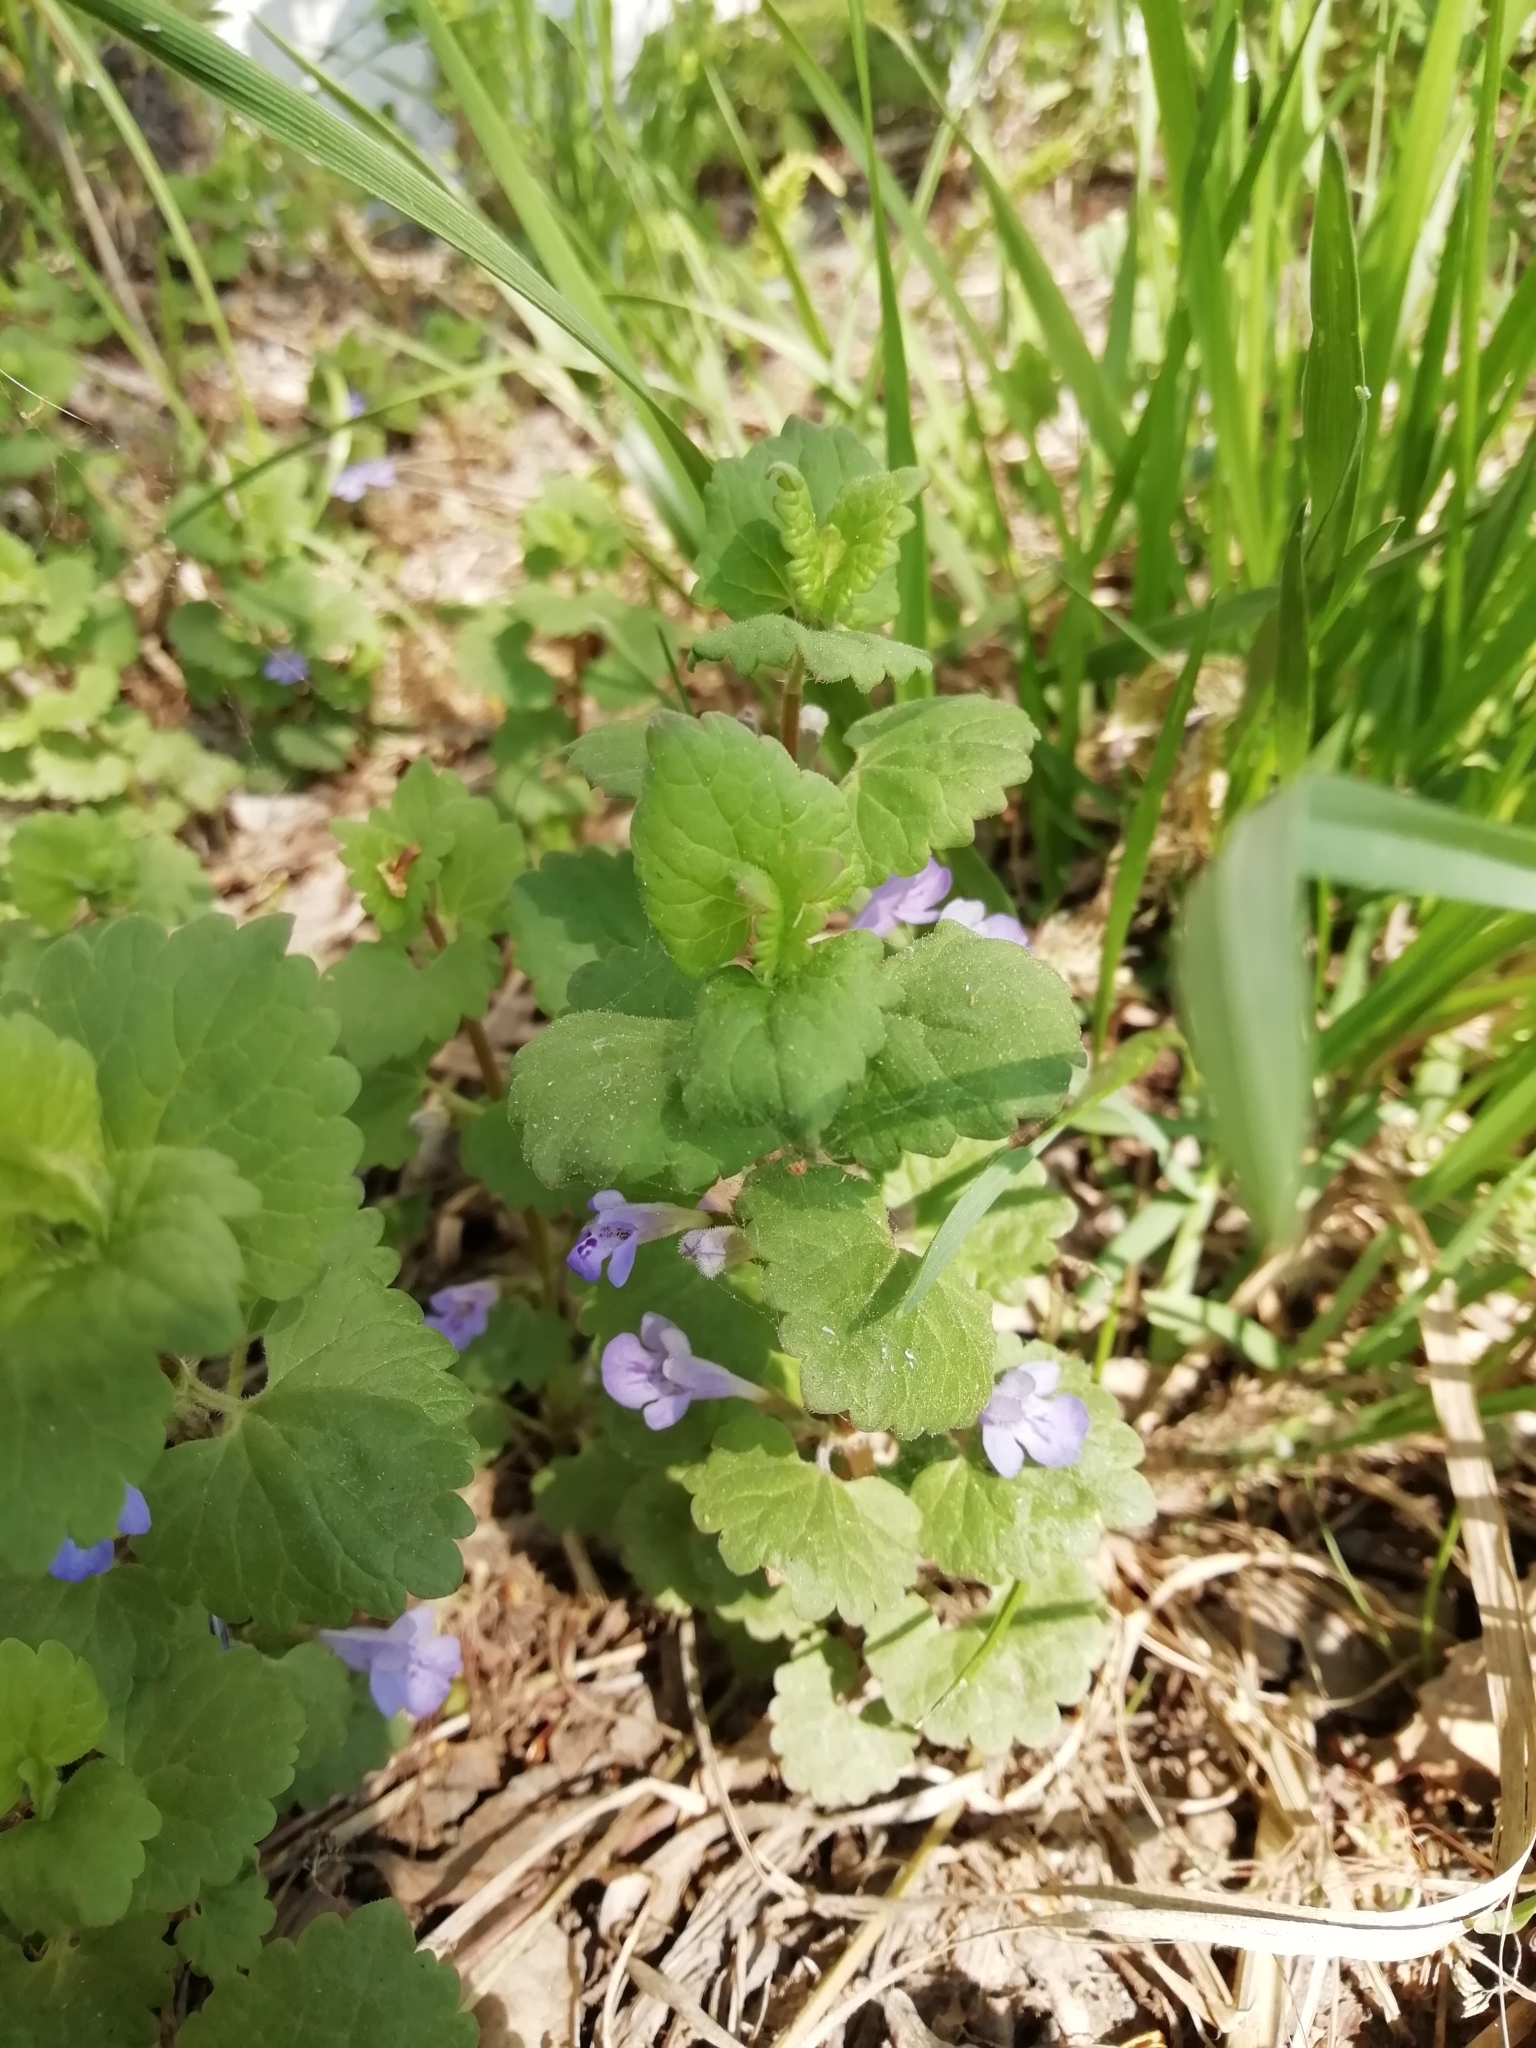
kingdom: Plantae
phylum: Tracheophyta
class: Magnoliopsida
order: Lamiales
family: Lamiaceae
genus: Glechoma
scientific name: Glechoma hederacea
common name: Ground ivy
